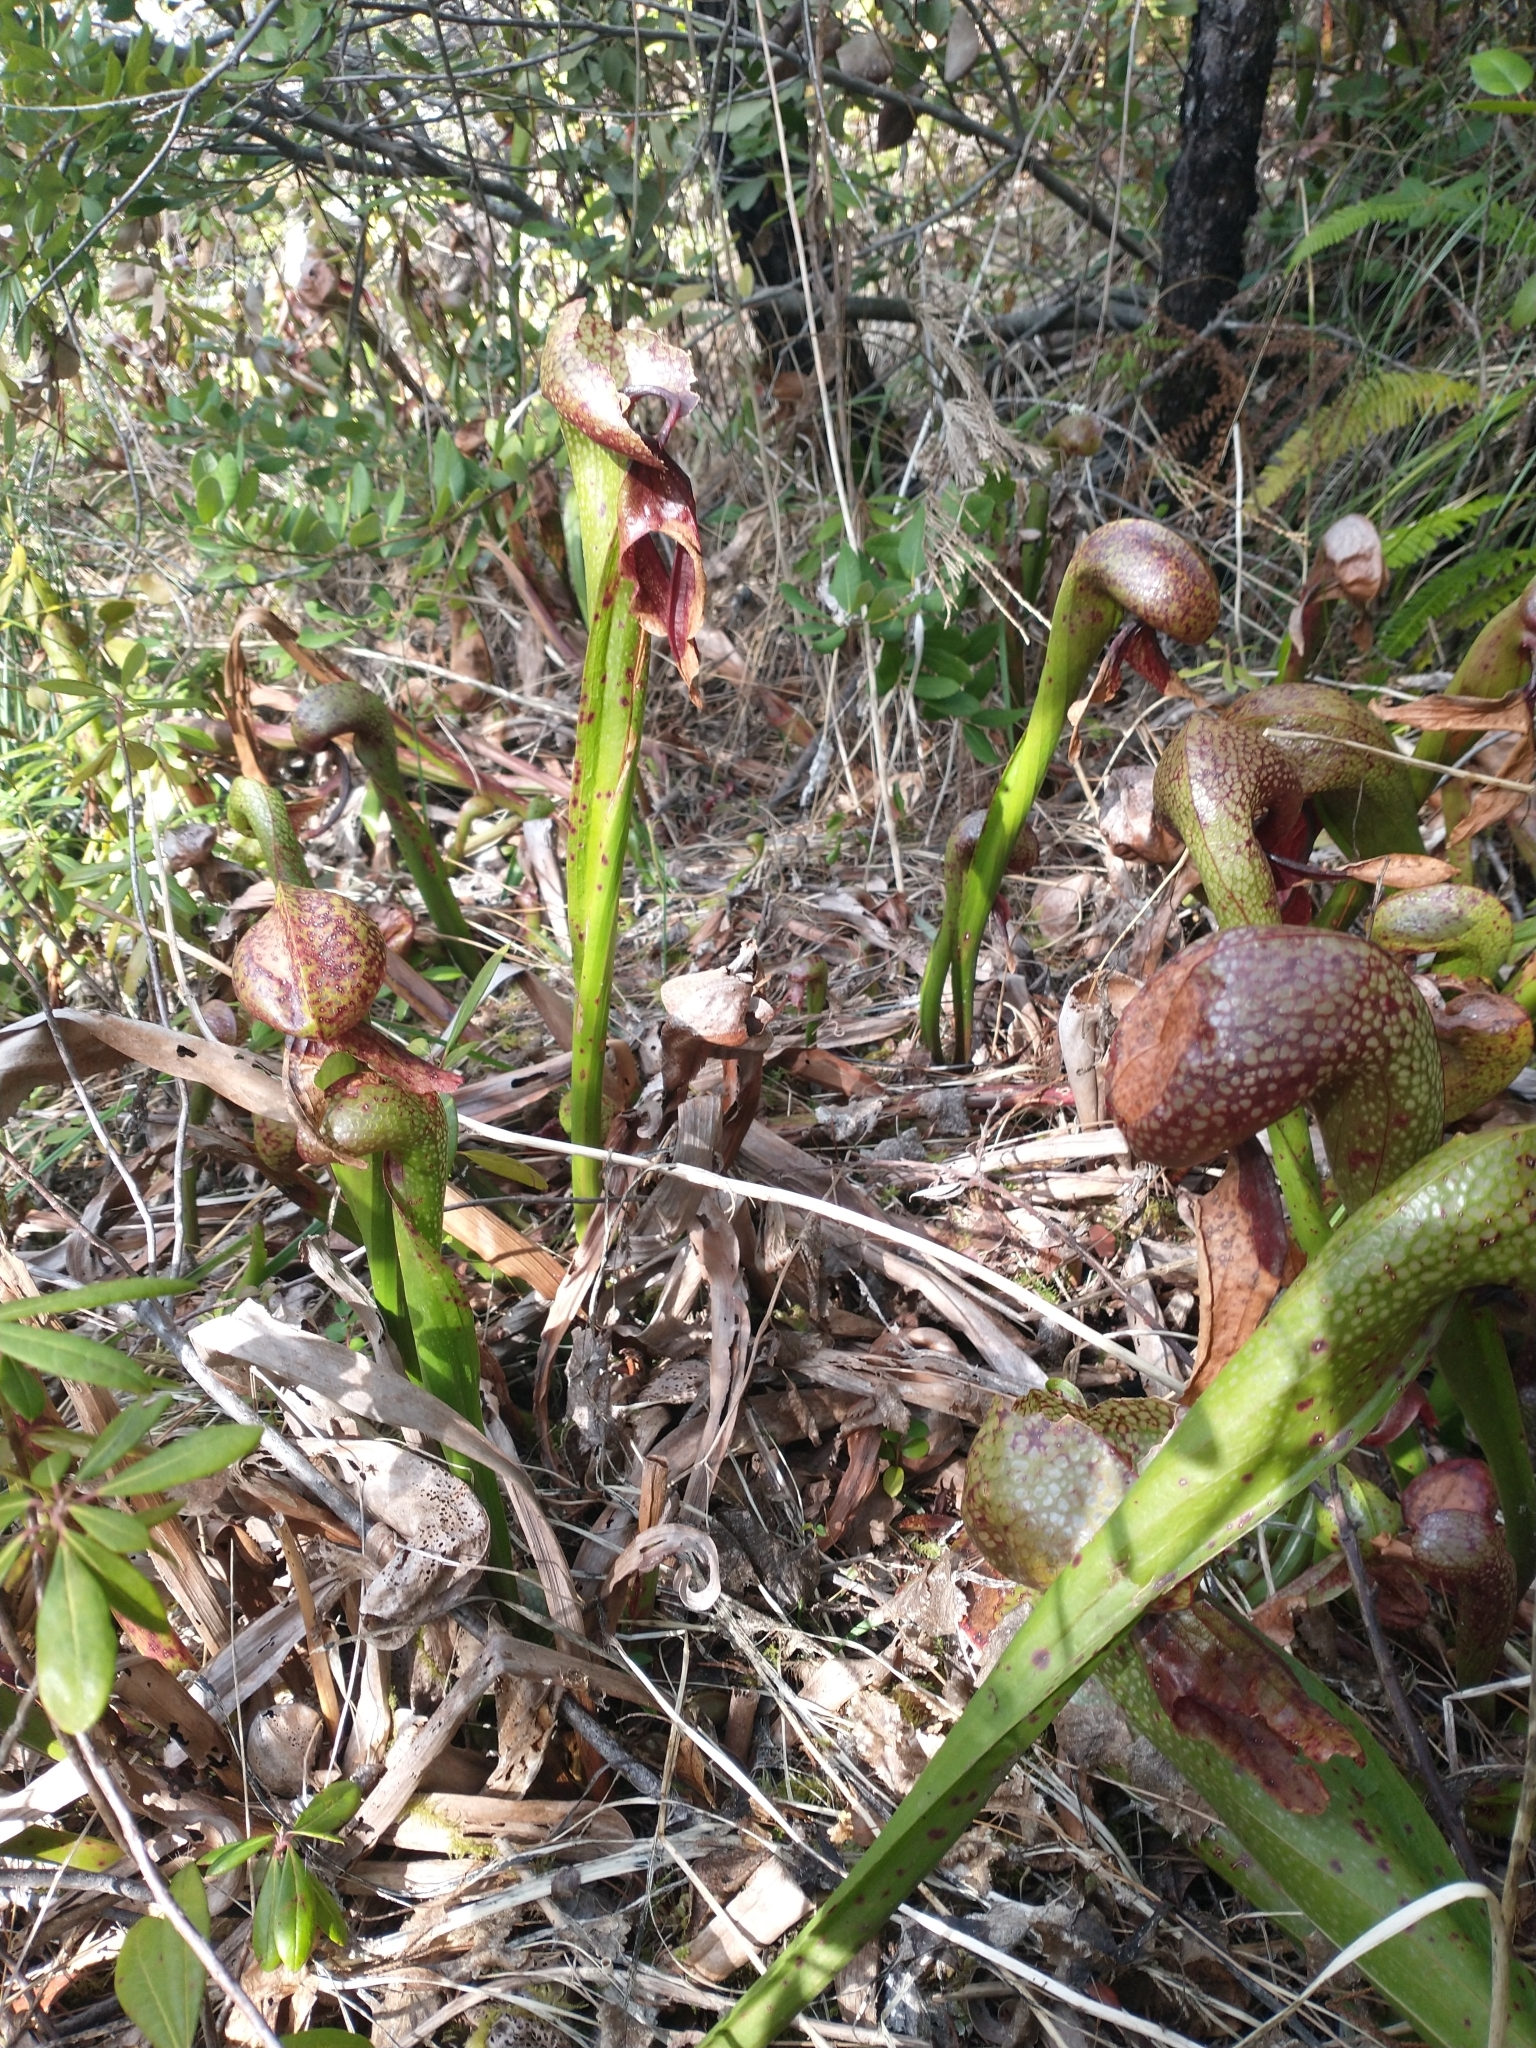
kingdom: Plantae
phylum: Tracheophyta
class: Magnoliopsida
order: Ericales
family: Sarraceniaceae
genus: Darlingtonia
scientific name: Darlingtonia californica
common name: California pitcher plant
